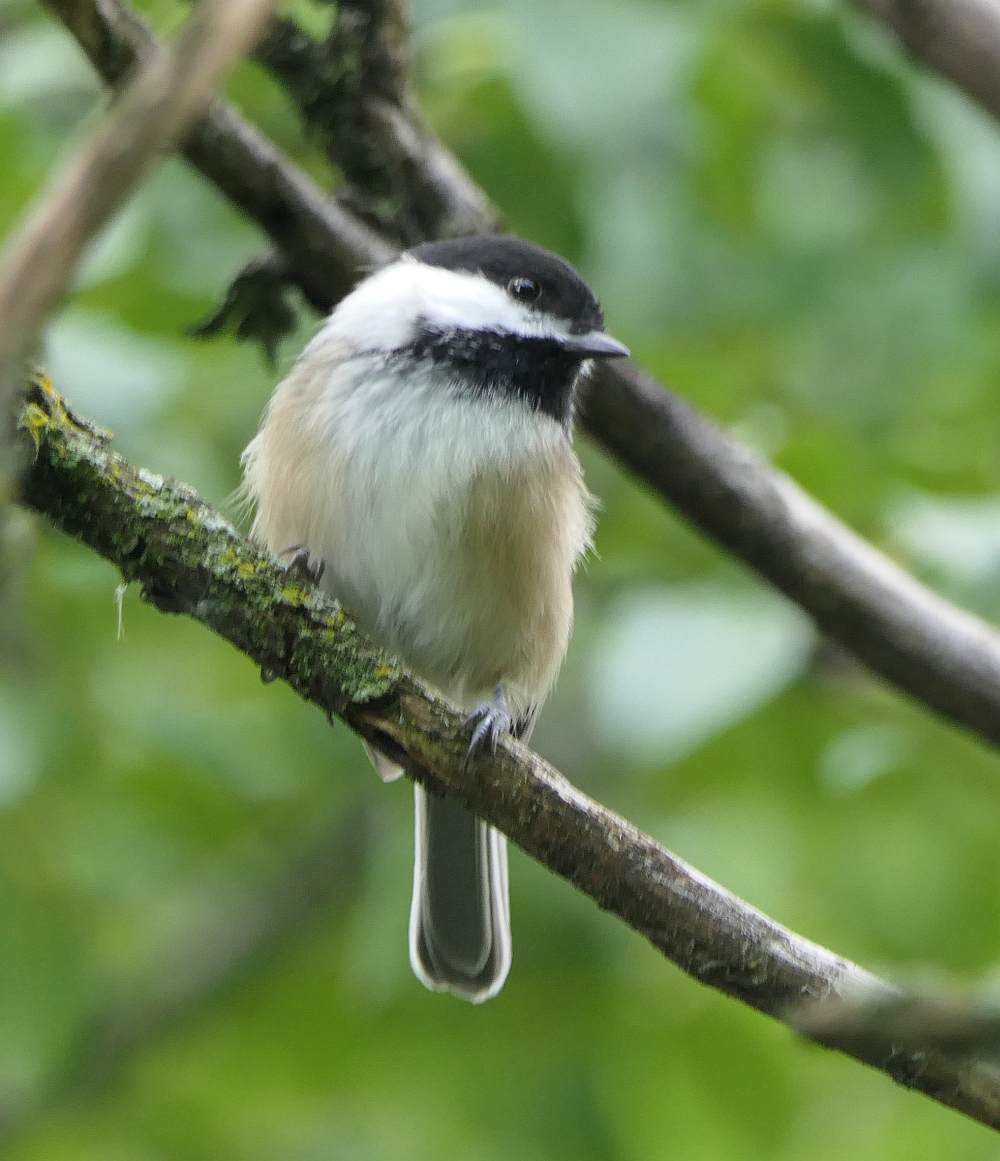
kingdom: Animalia
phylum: Chordata
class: Aves
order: Passeriformes
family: Paridae
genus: Poecile
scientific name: Poecile atricapillus
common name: Black-capped chickadee
